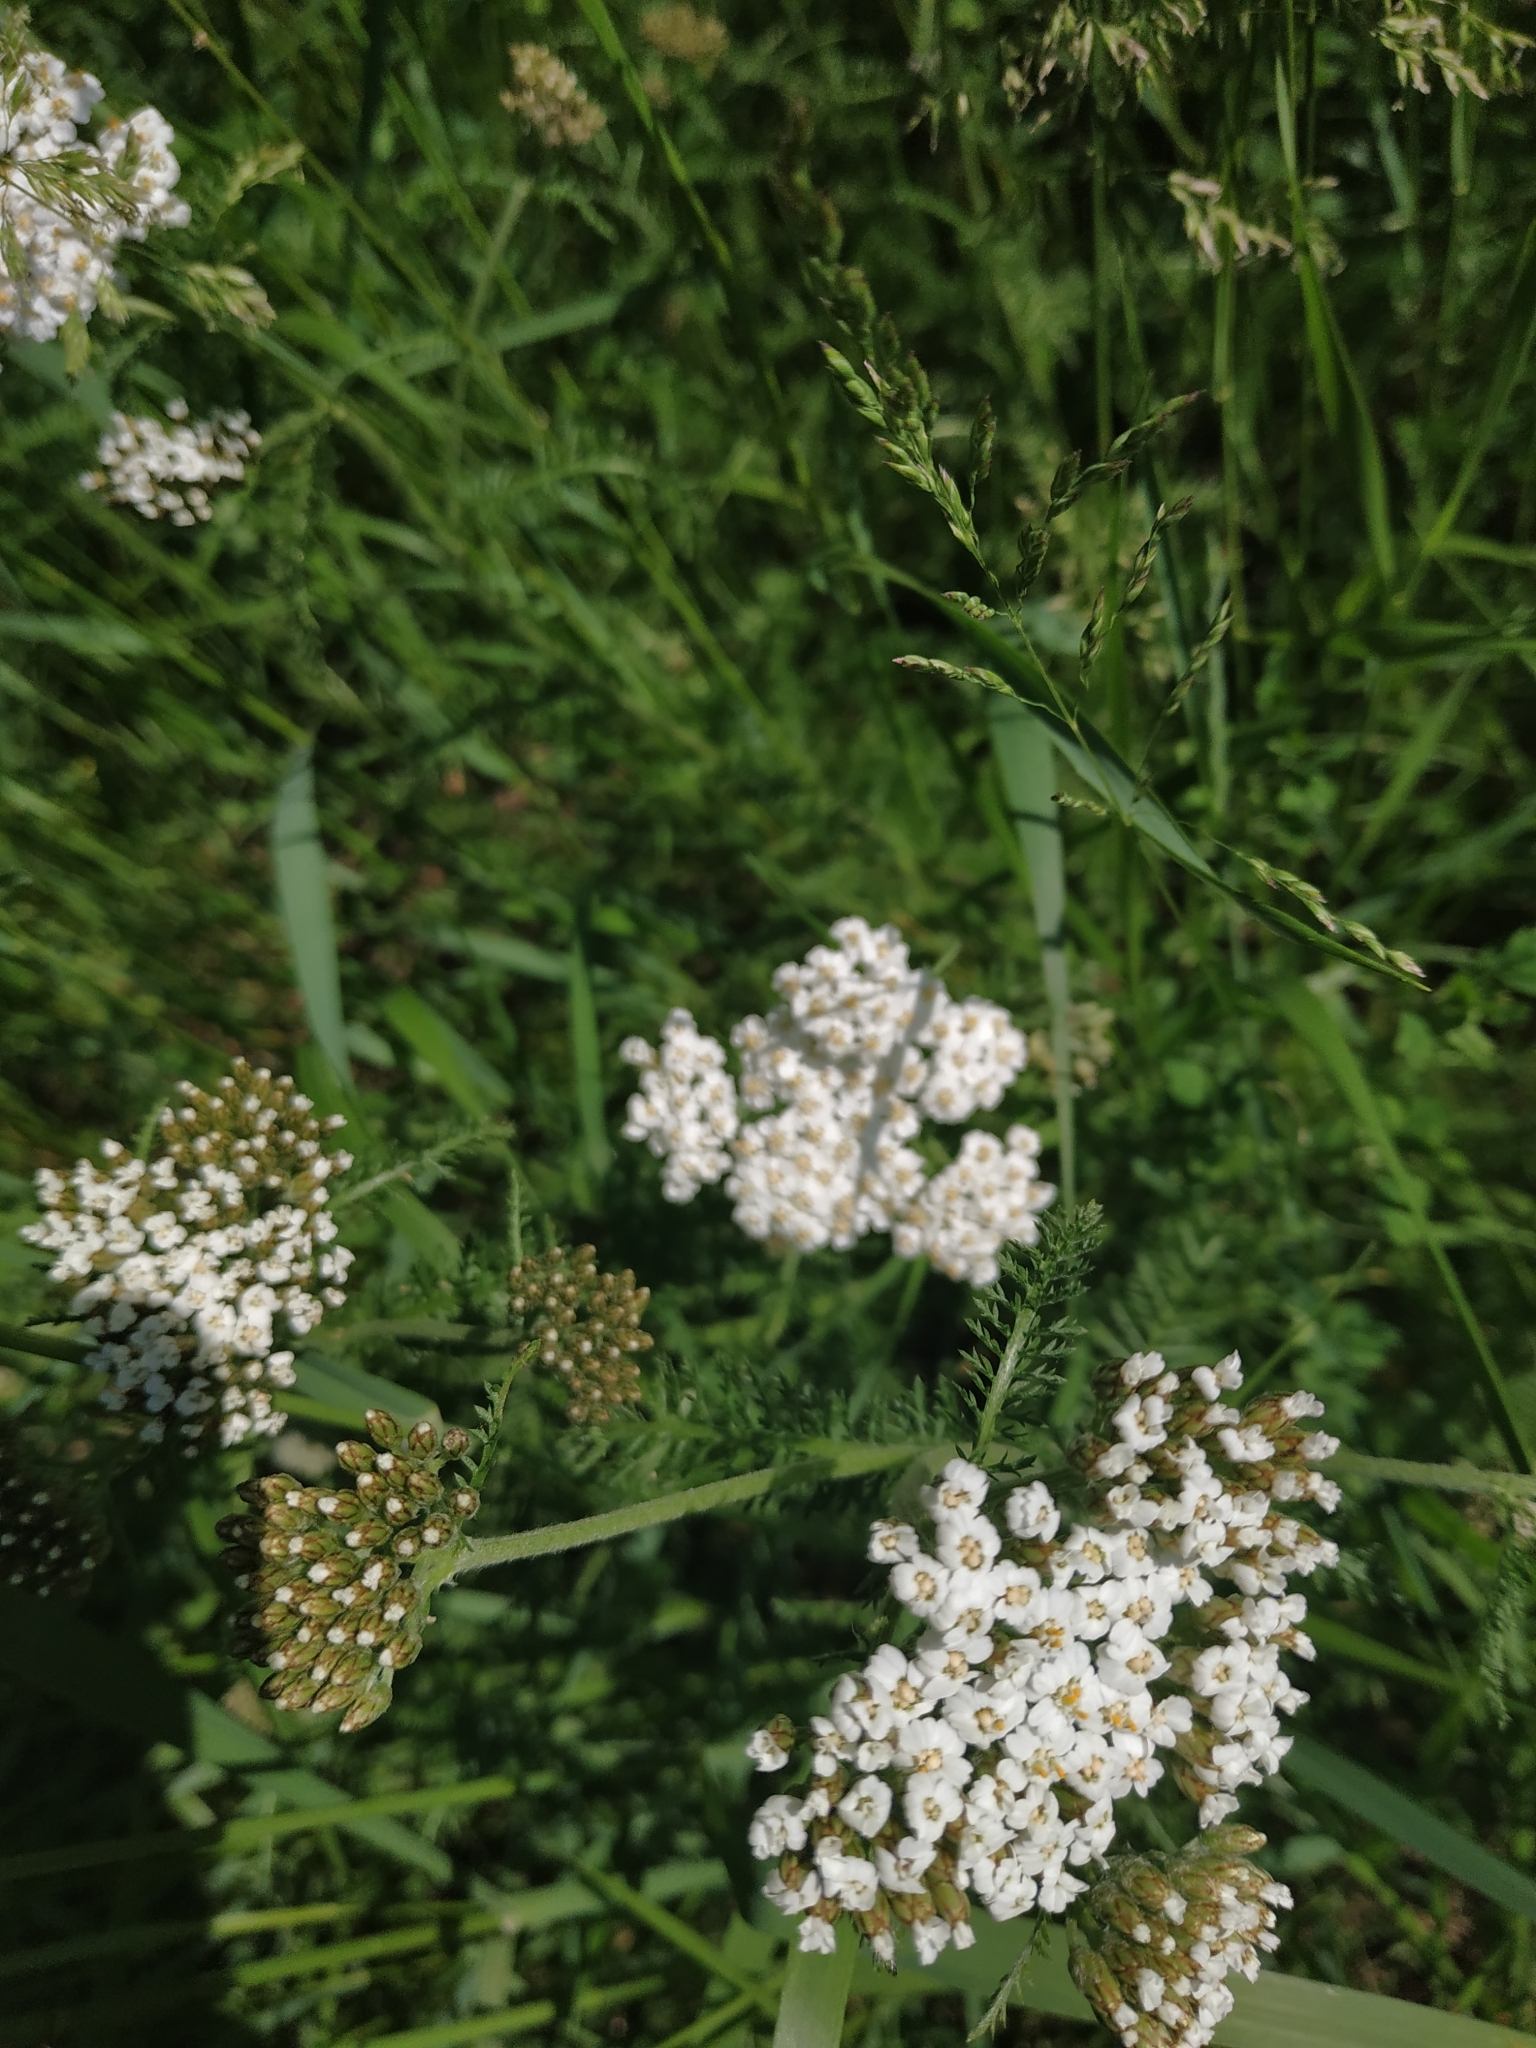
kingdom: Plantae
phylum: Tracheophyta
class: Magnoliopsida
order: Asterales
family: Asteraceae
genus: Achillea
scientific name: Achillea millefolium
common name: Yarrow
